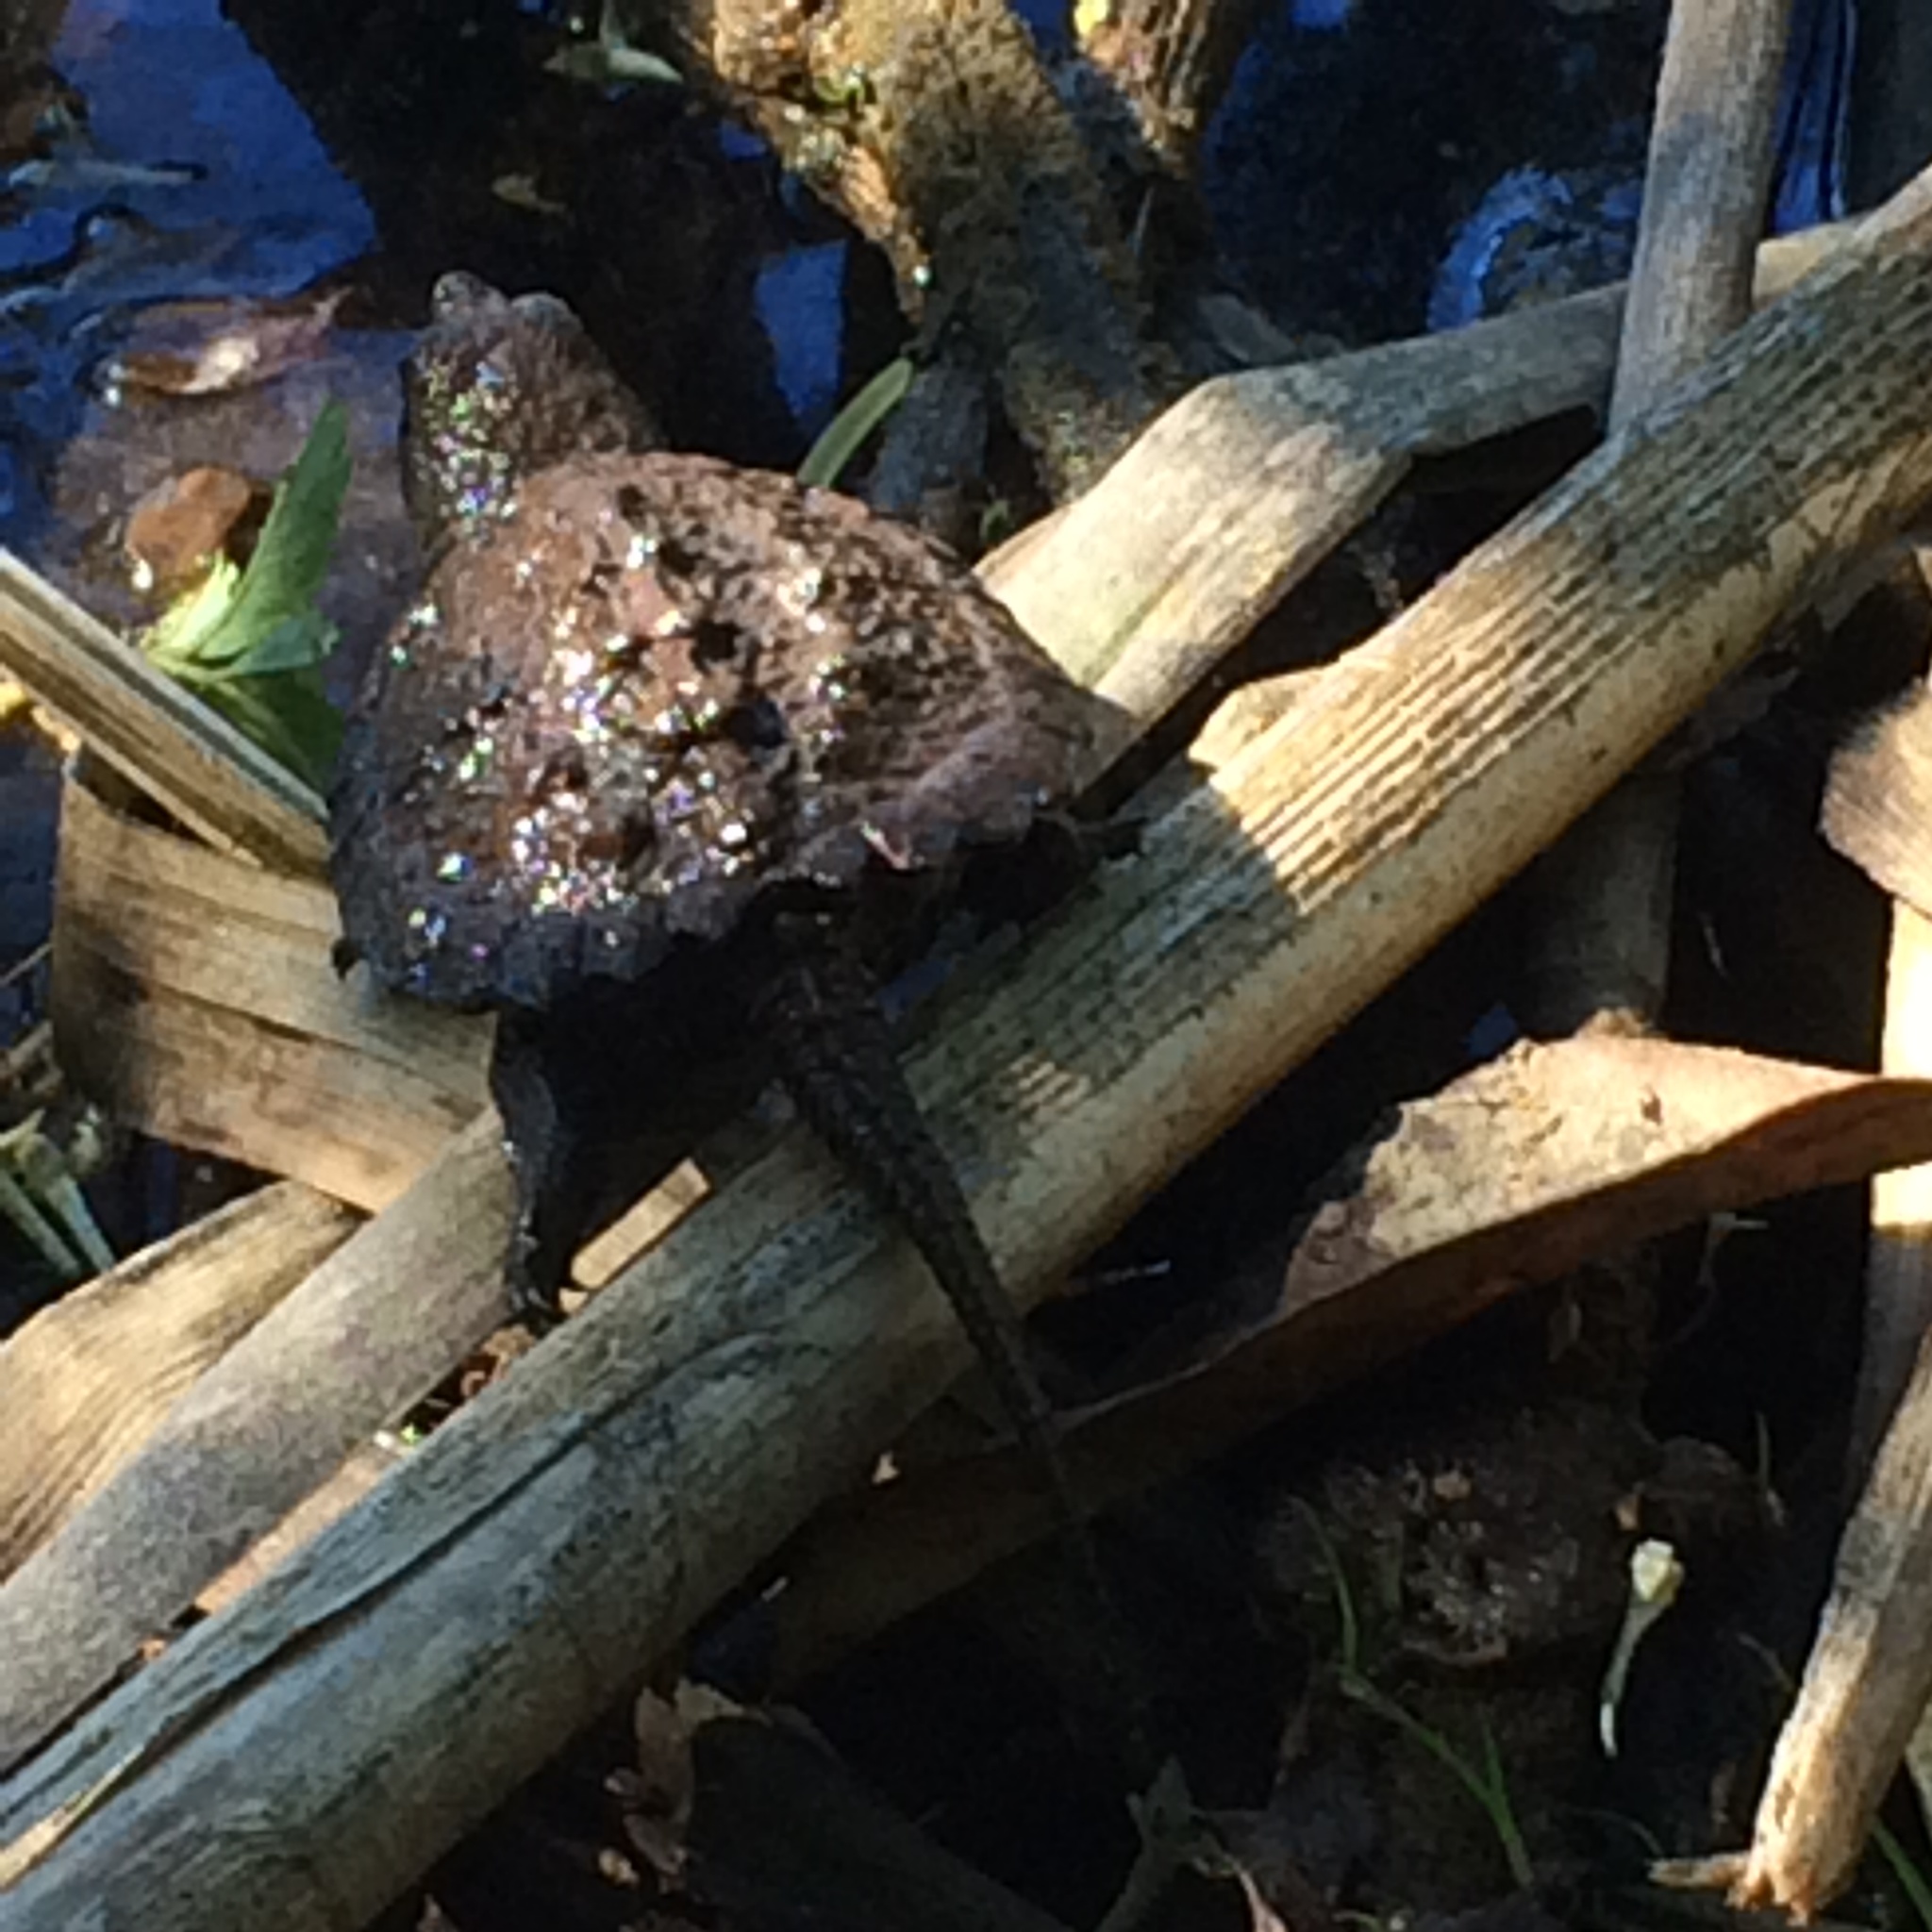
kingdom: Animalia
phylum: Chordata
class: Testudines
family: Chelydridae
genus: Chelydra
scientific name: Chelydra serpentina
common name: Common snapping turtle
